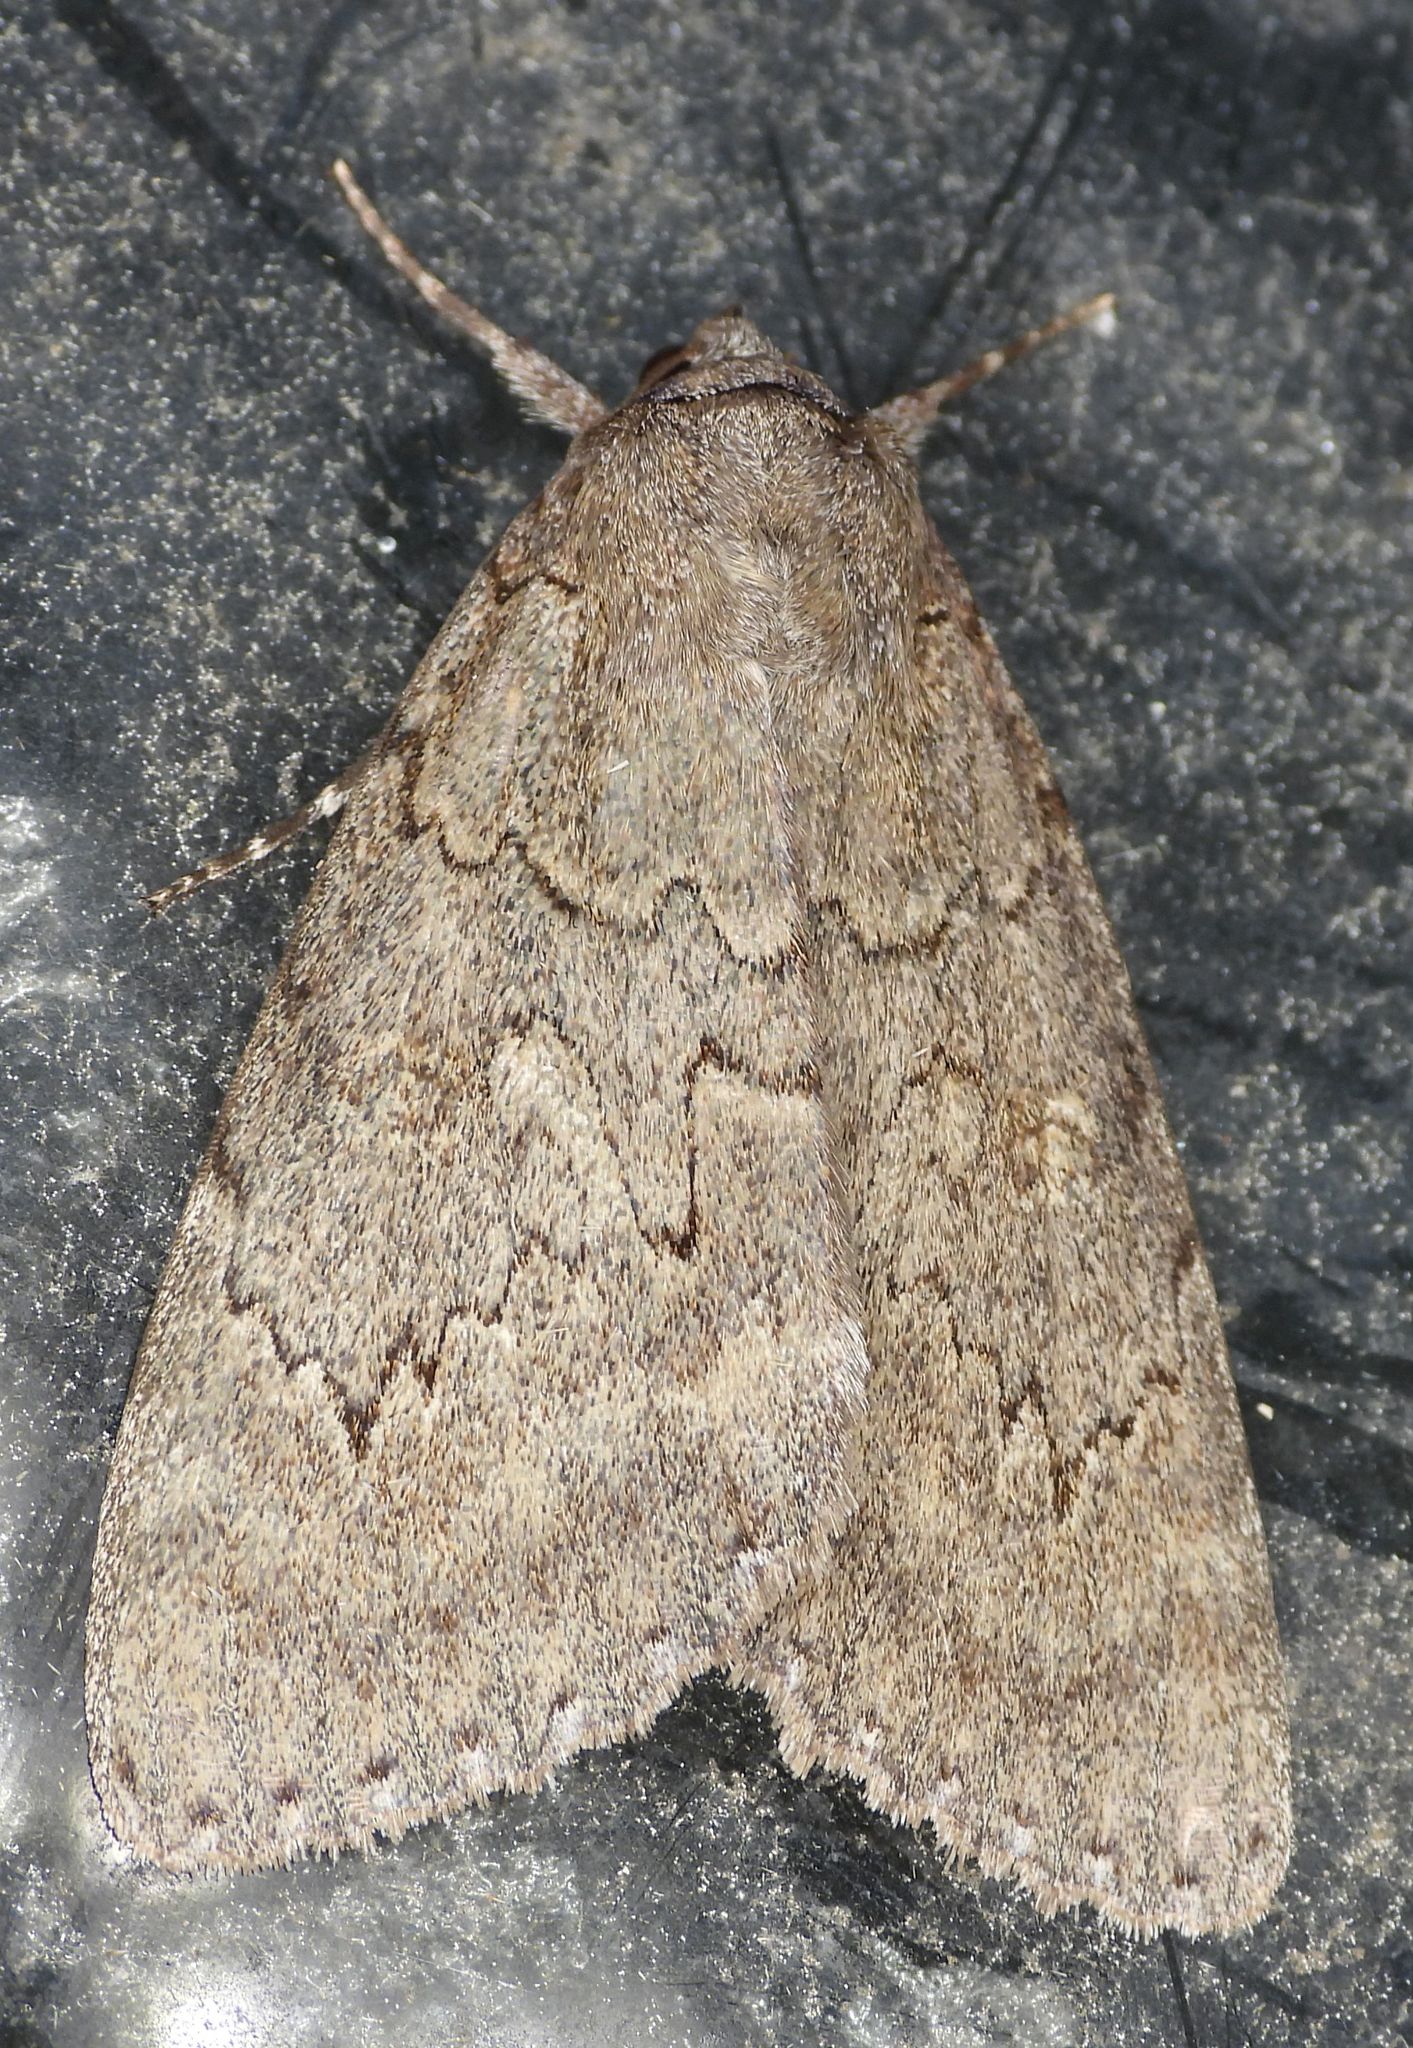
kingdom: Animalia
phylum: Arthropoda
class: Insecta
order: Lepidoptera
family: Erebidae
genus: Catocala
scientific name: Catocala serena
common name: Serene underwing
